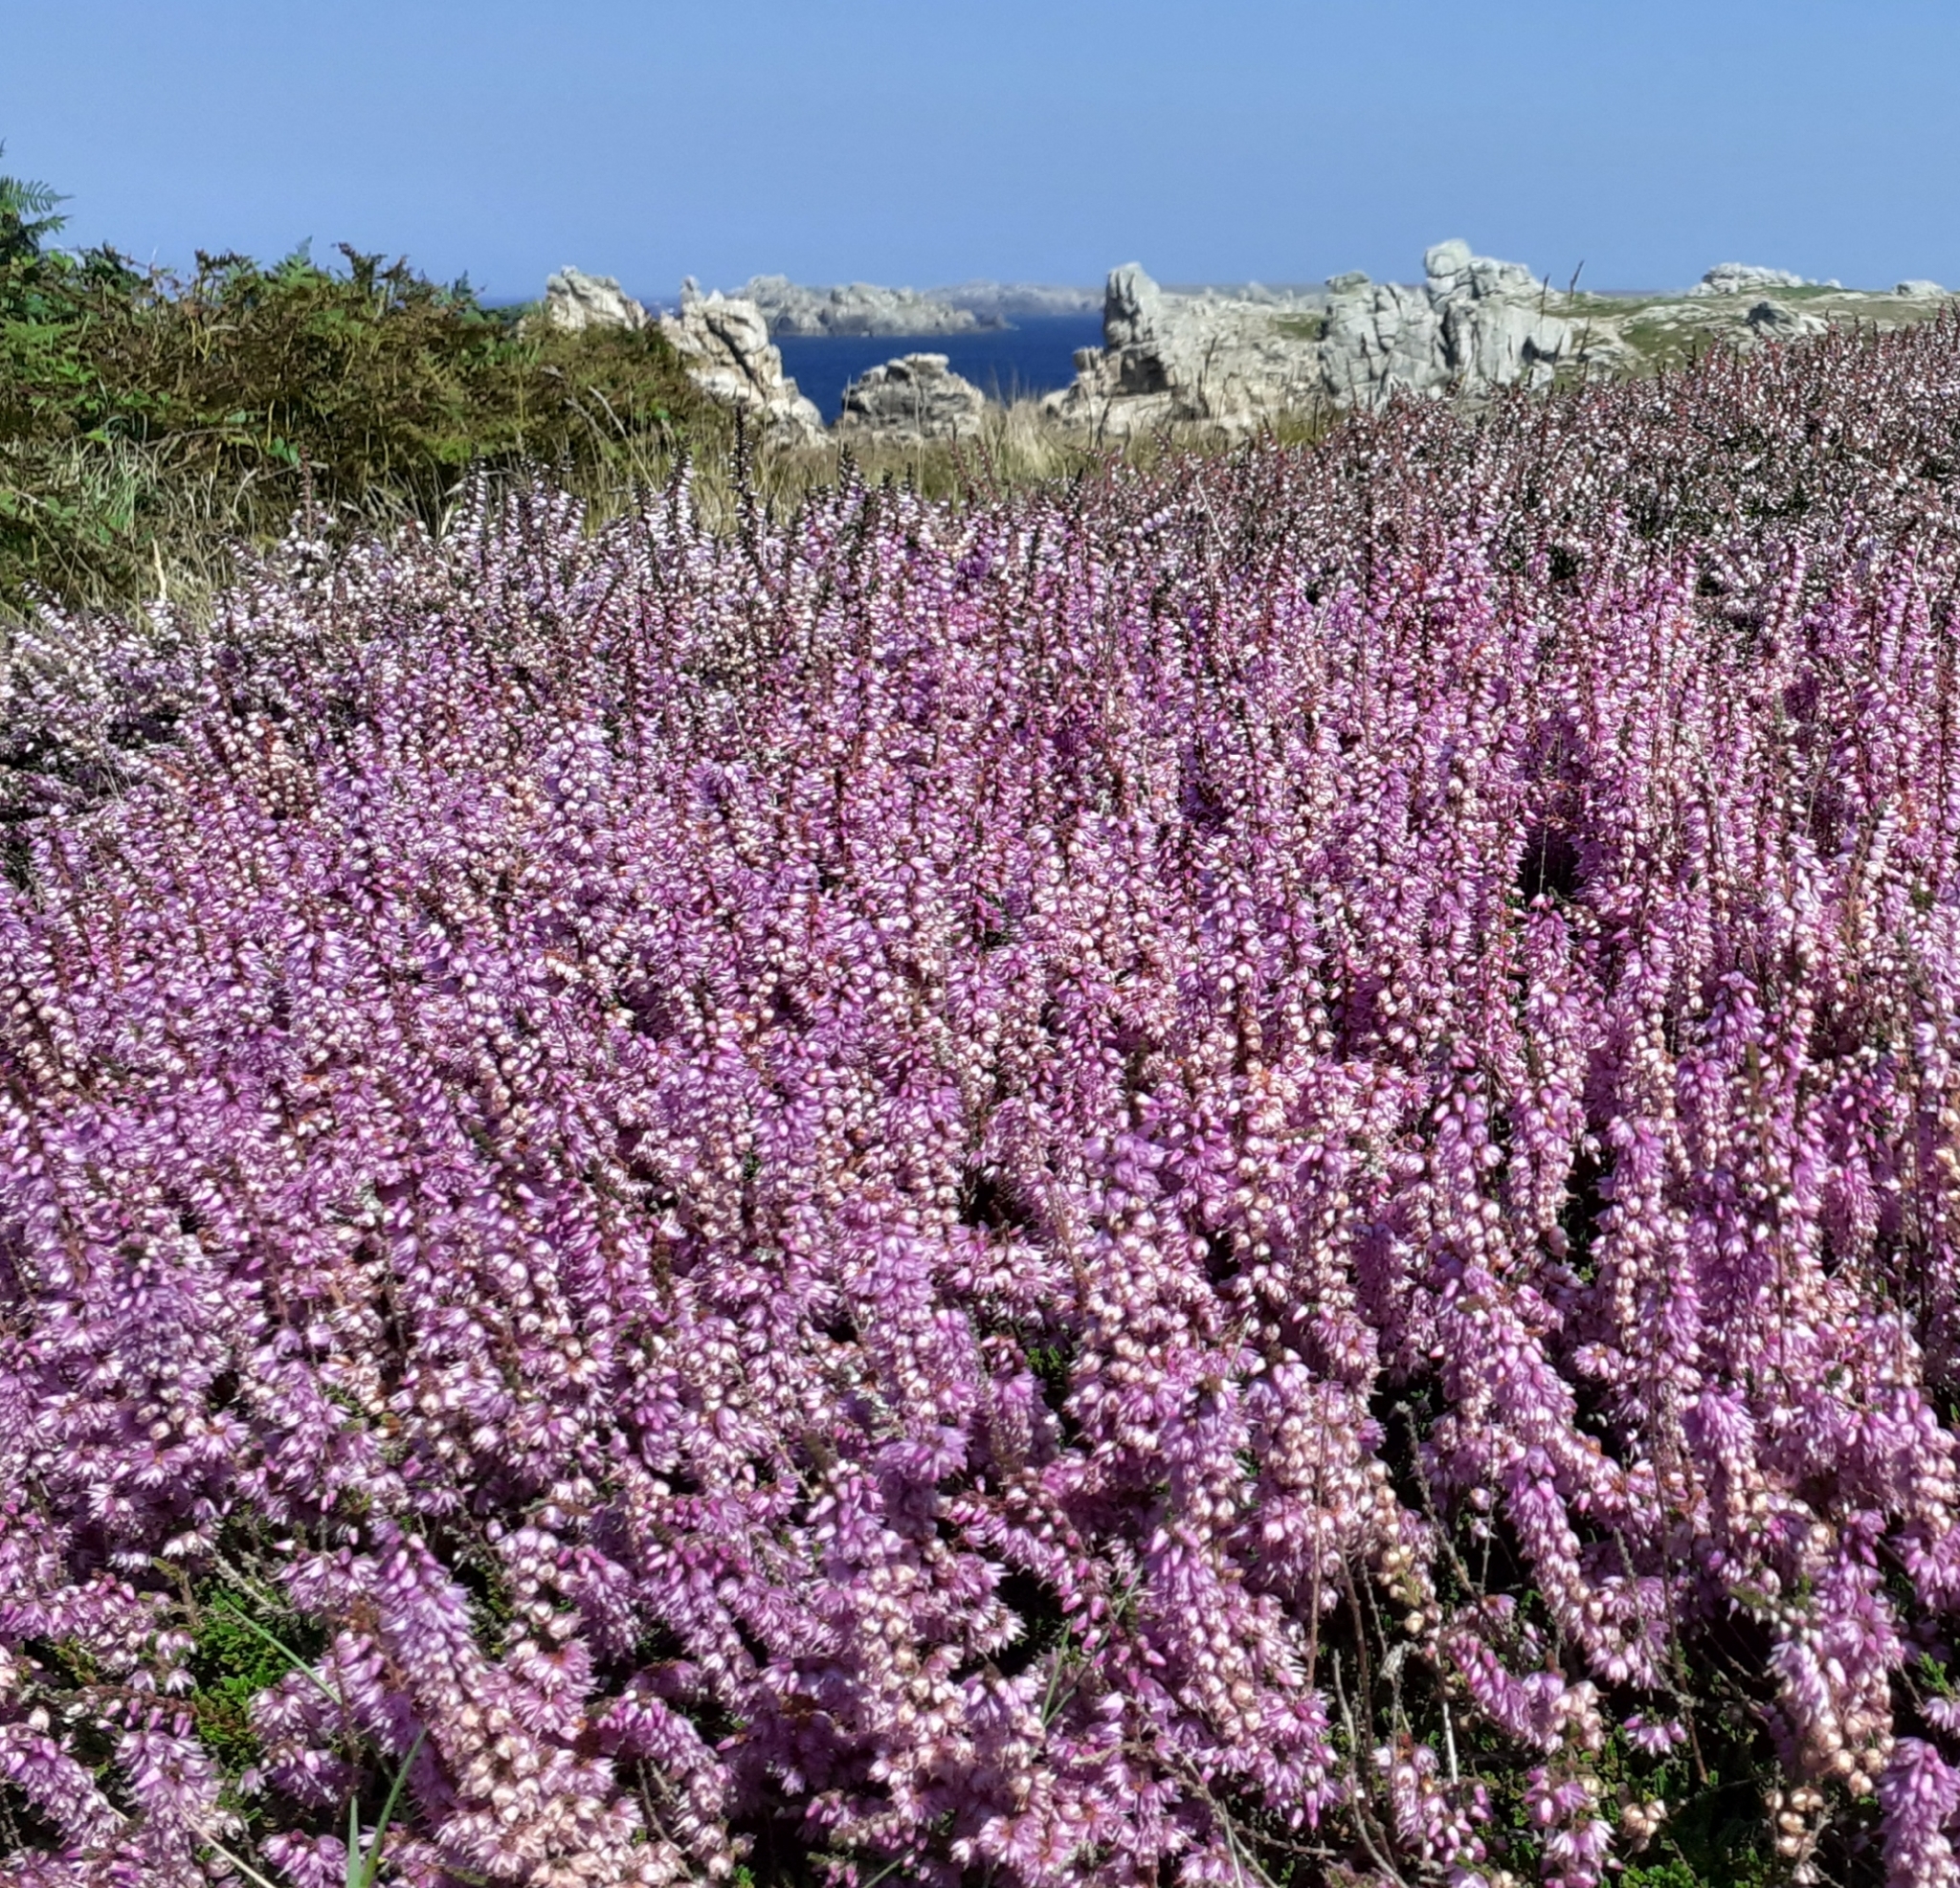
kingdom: Plantae
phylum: Tracheophyta
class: Magnoliopsida
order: Ericales
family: Ericaceae
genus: Calluna
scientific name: Calluna vulgaris
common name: Heather
